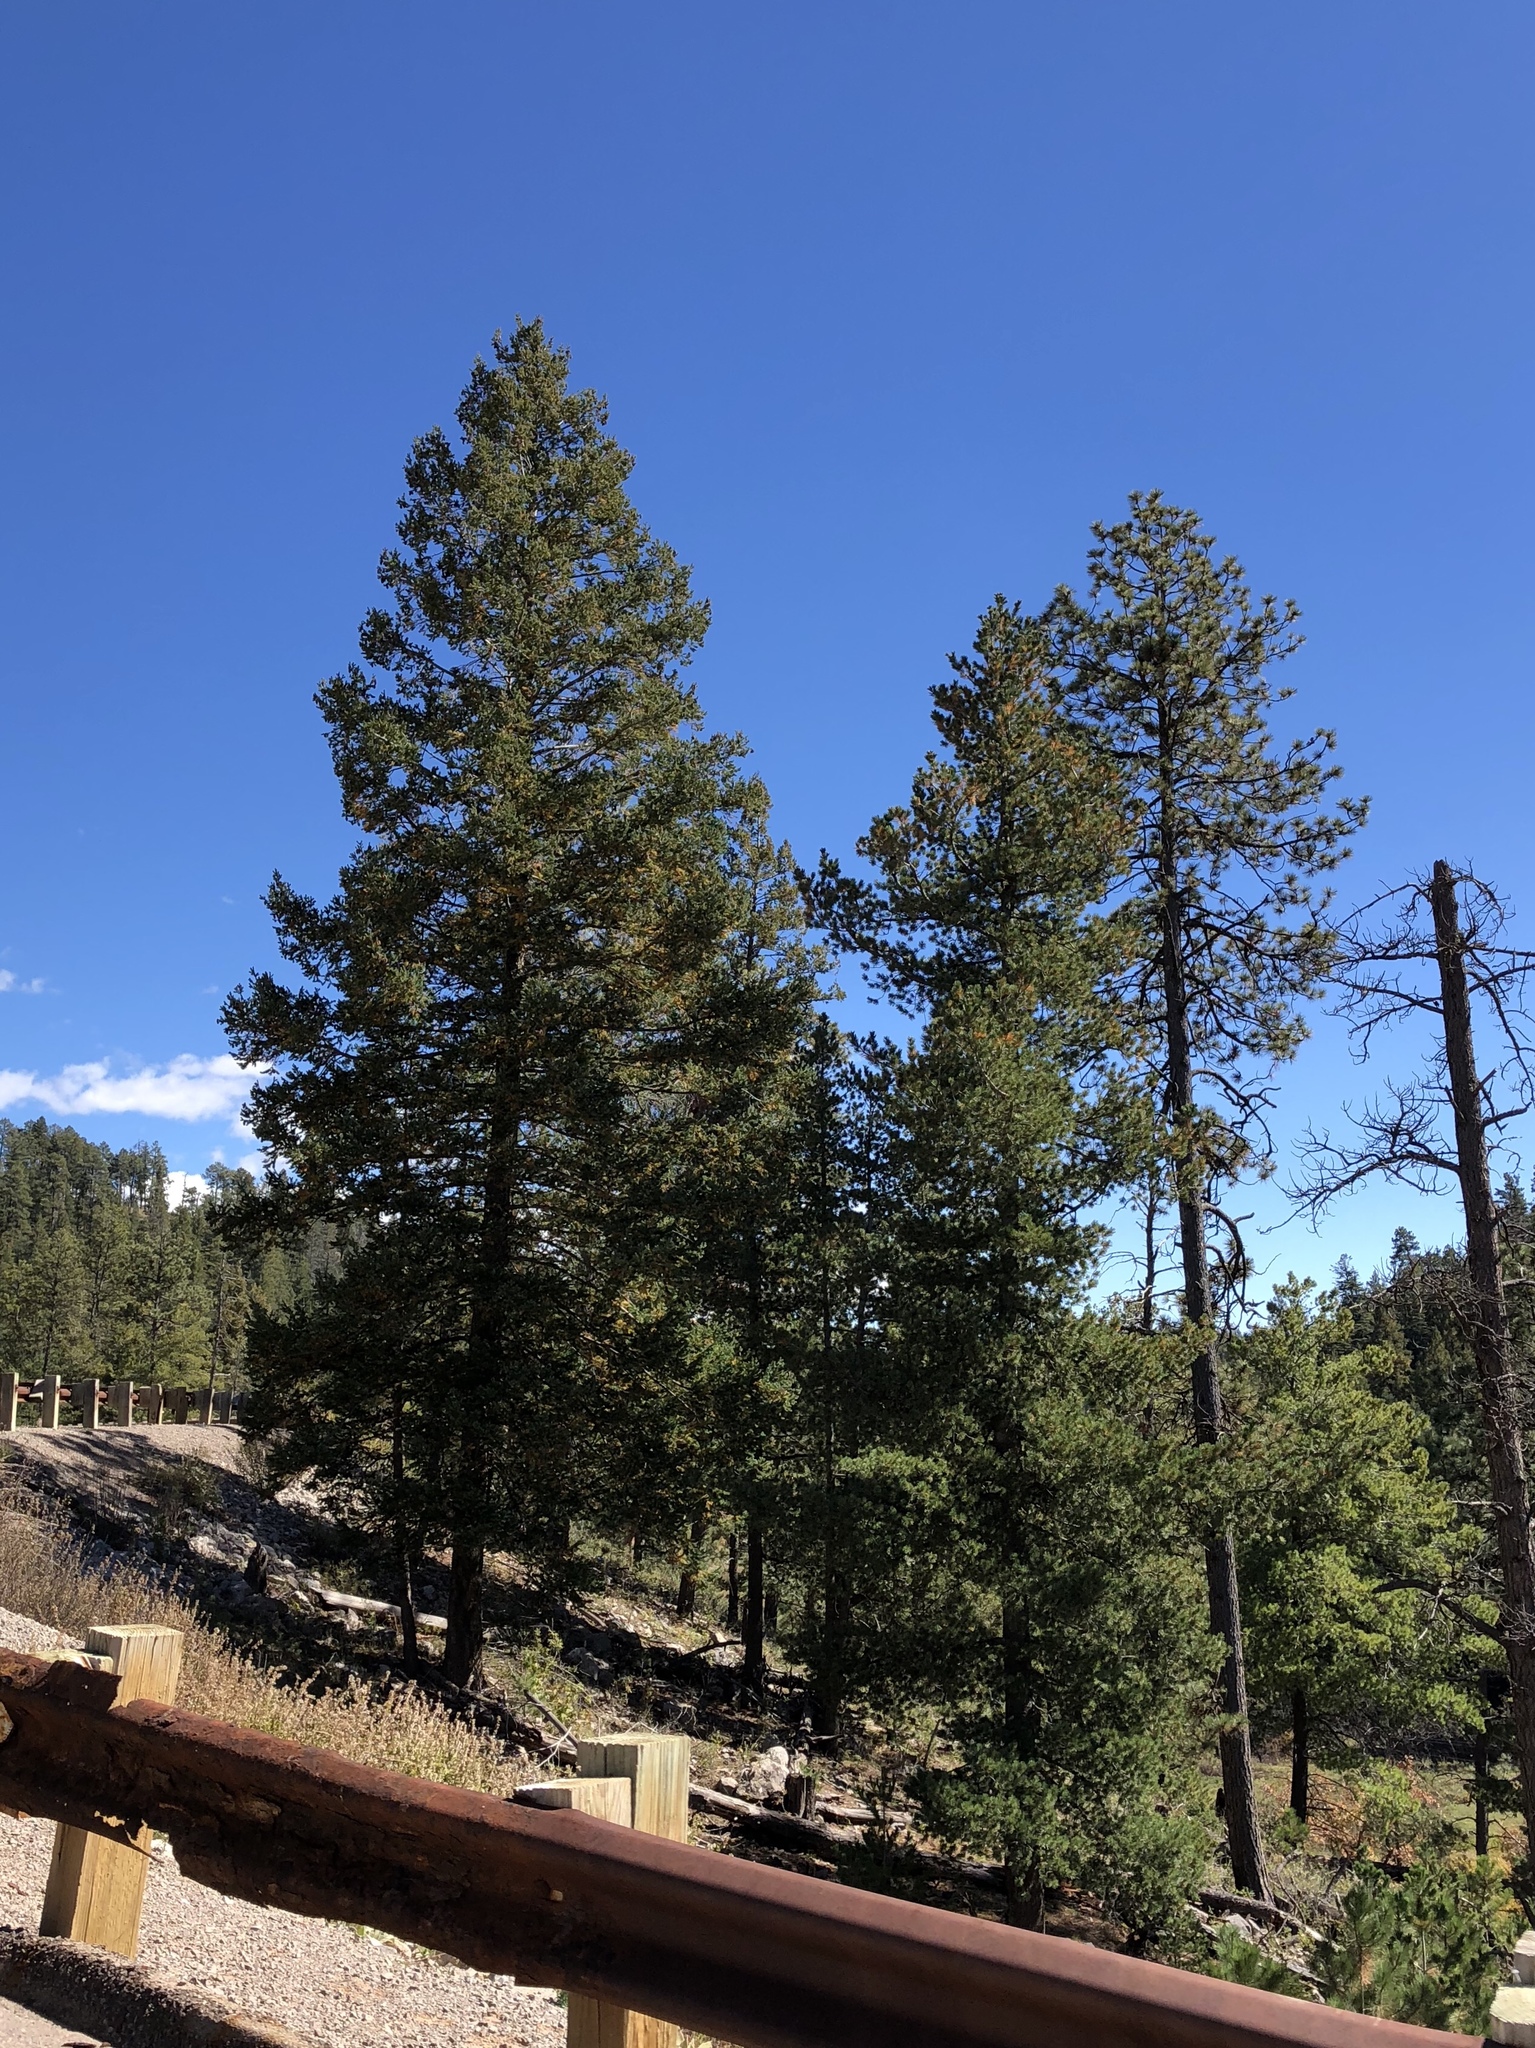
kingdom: Plantae
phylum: Tracheophyta
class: Pinopsida
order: Pinales
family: Pinaceae
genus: Pinus
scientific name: Pinus ponderosa
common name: Western yellow-pine
